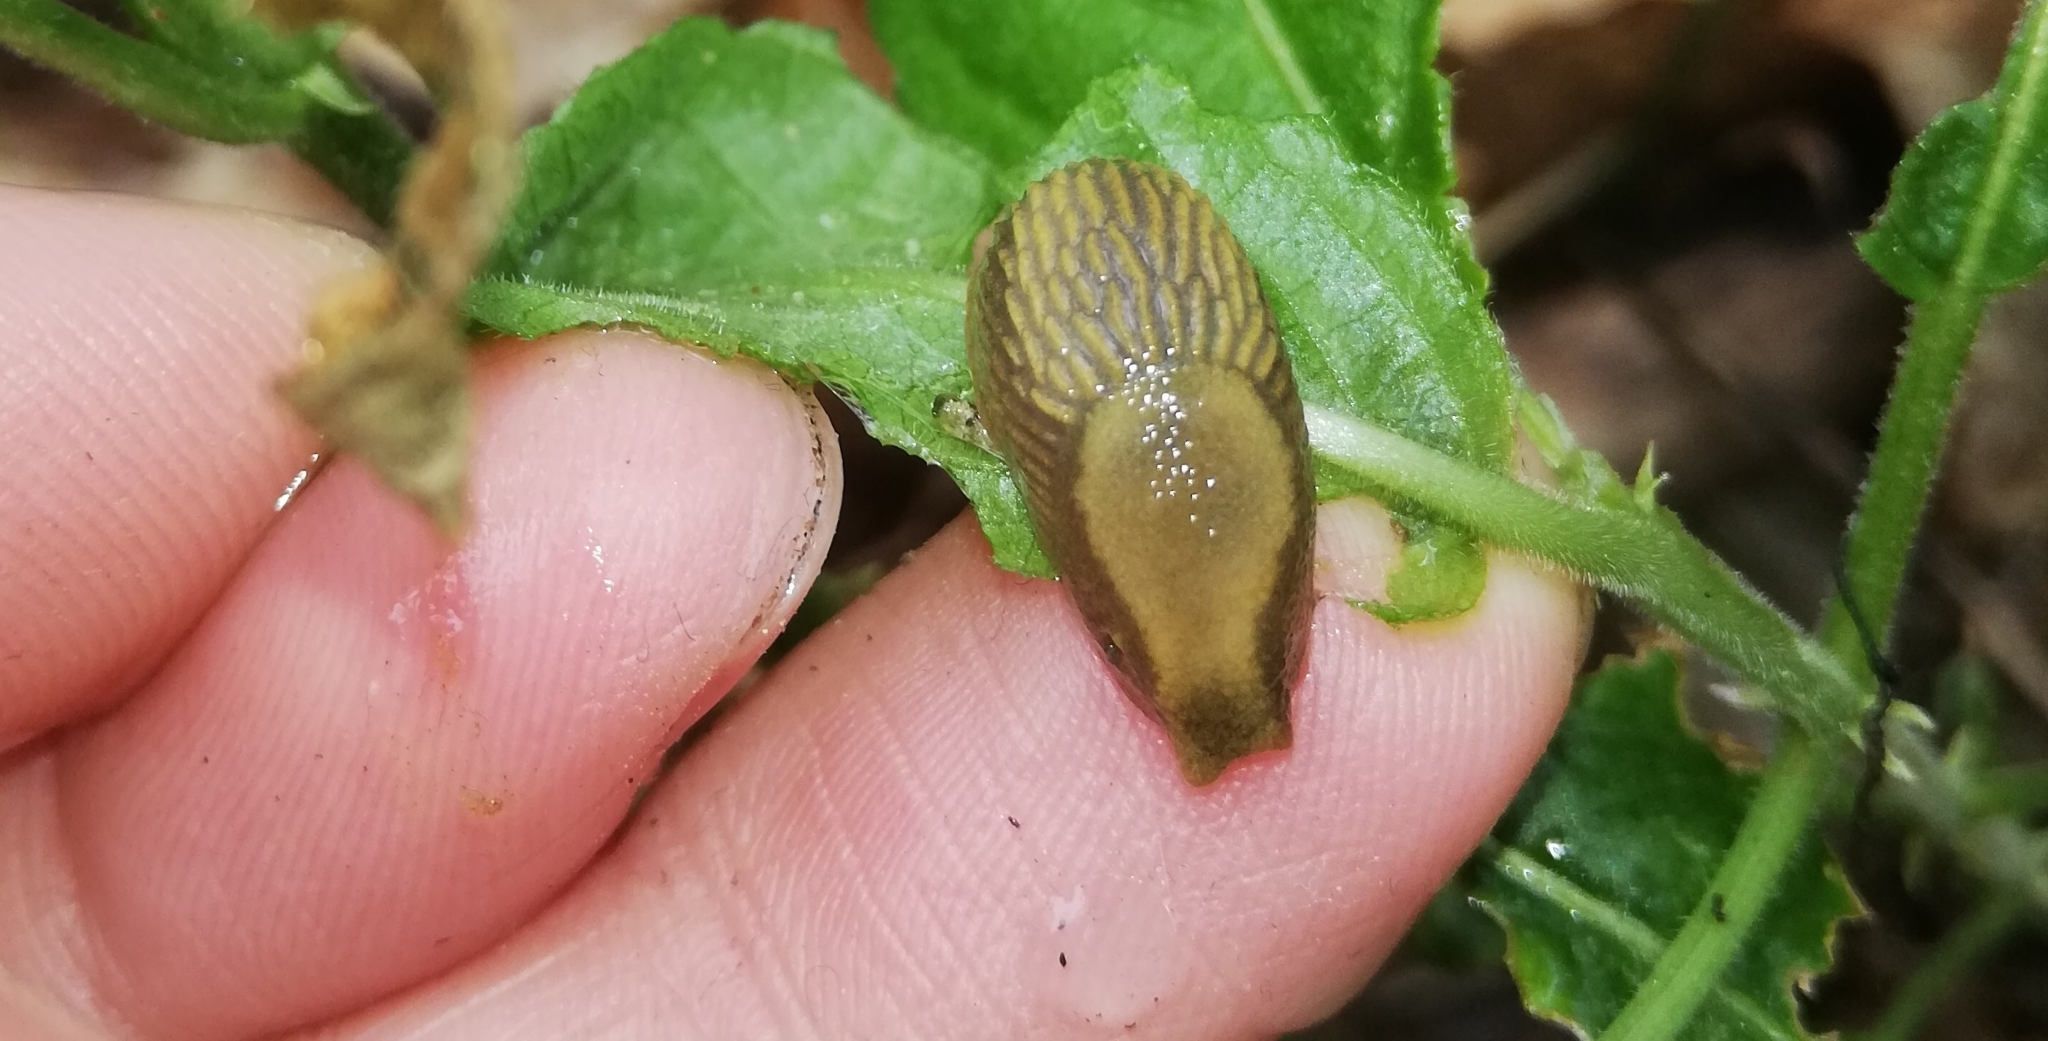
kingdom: Animalia
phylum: Mollusca
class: Gastropoda
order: Stylommatophora
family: Arionidae
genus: Arion
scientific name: Arion vulgaris
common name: Lusitanian slug
